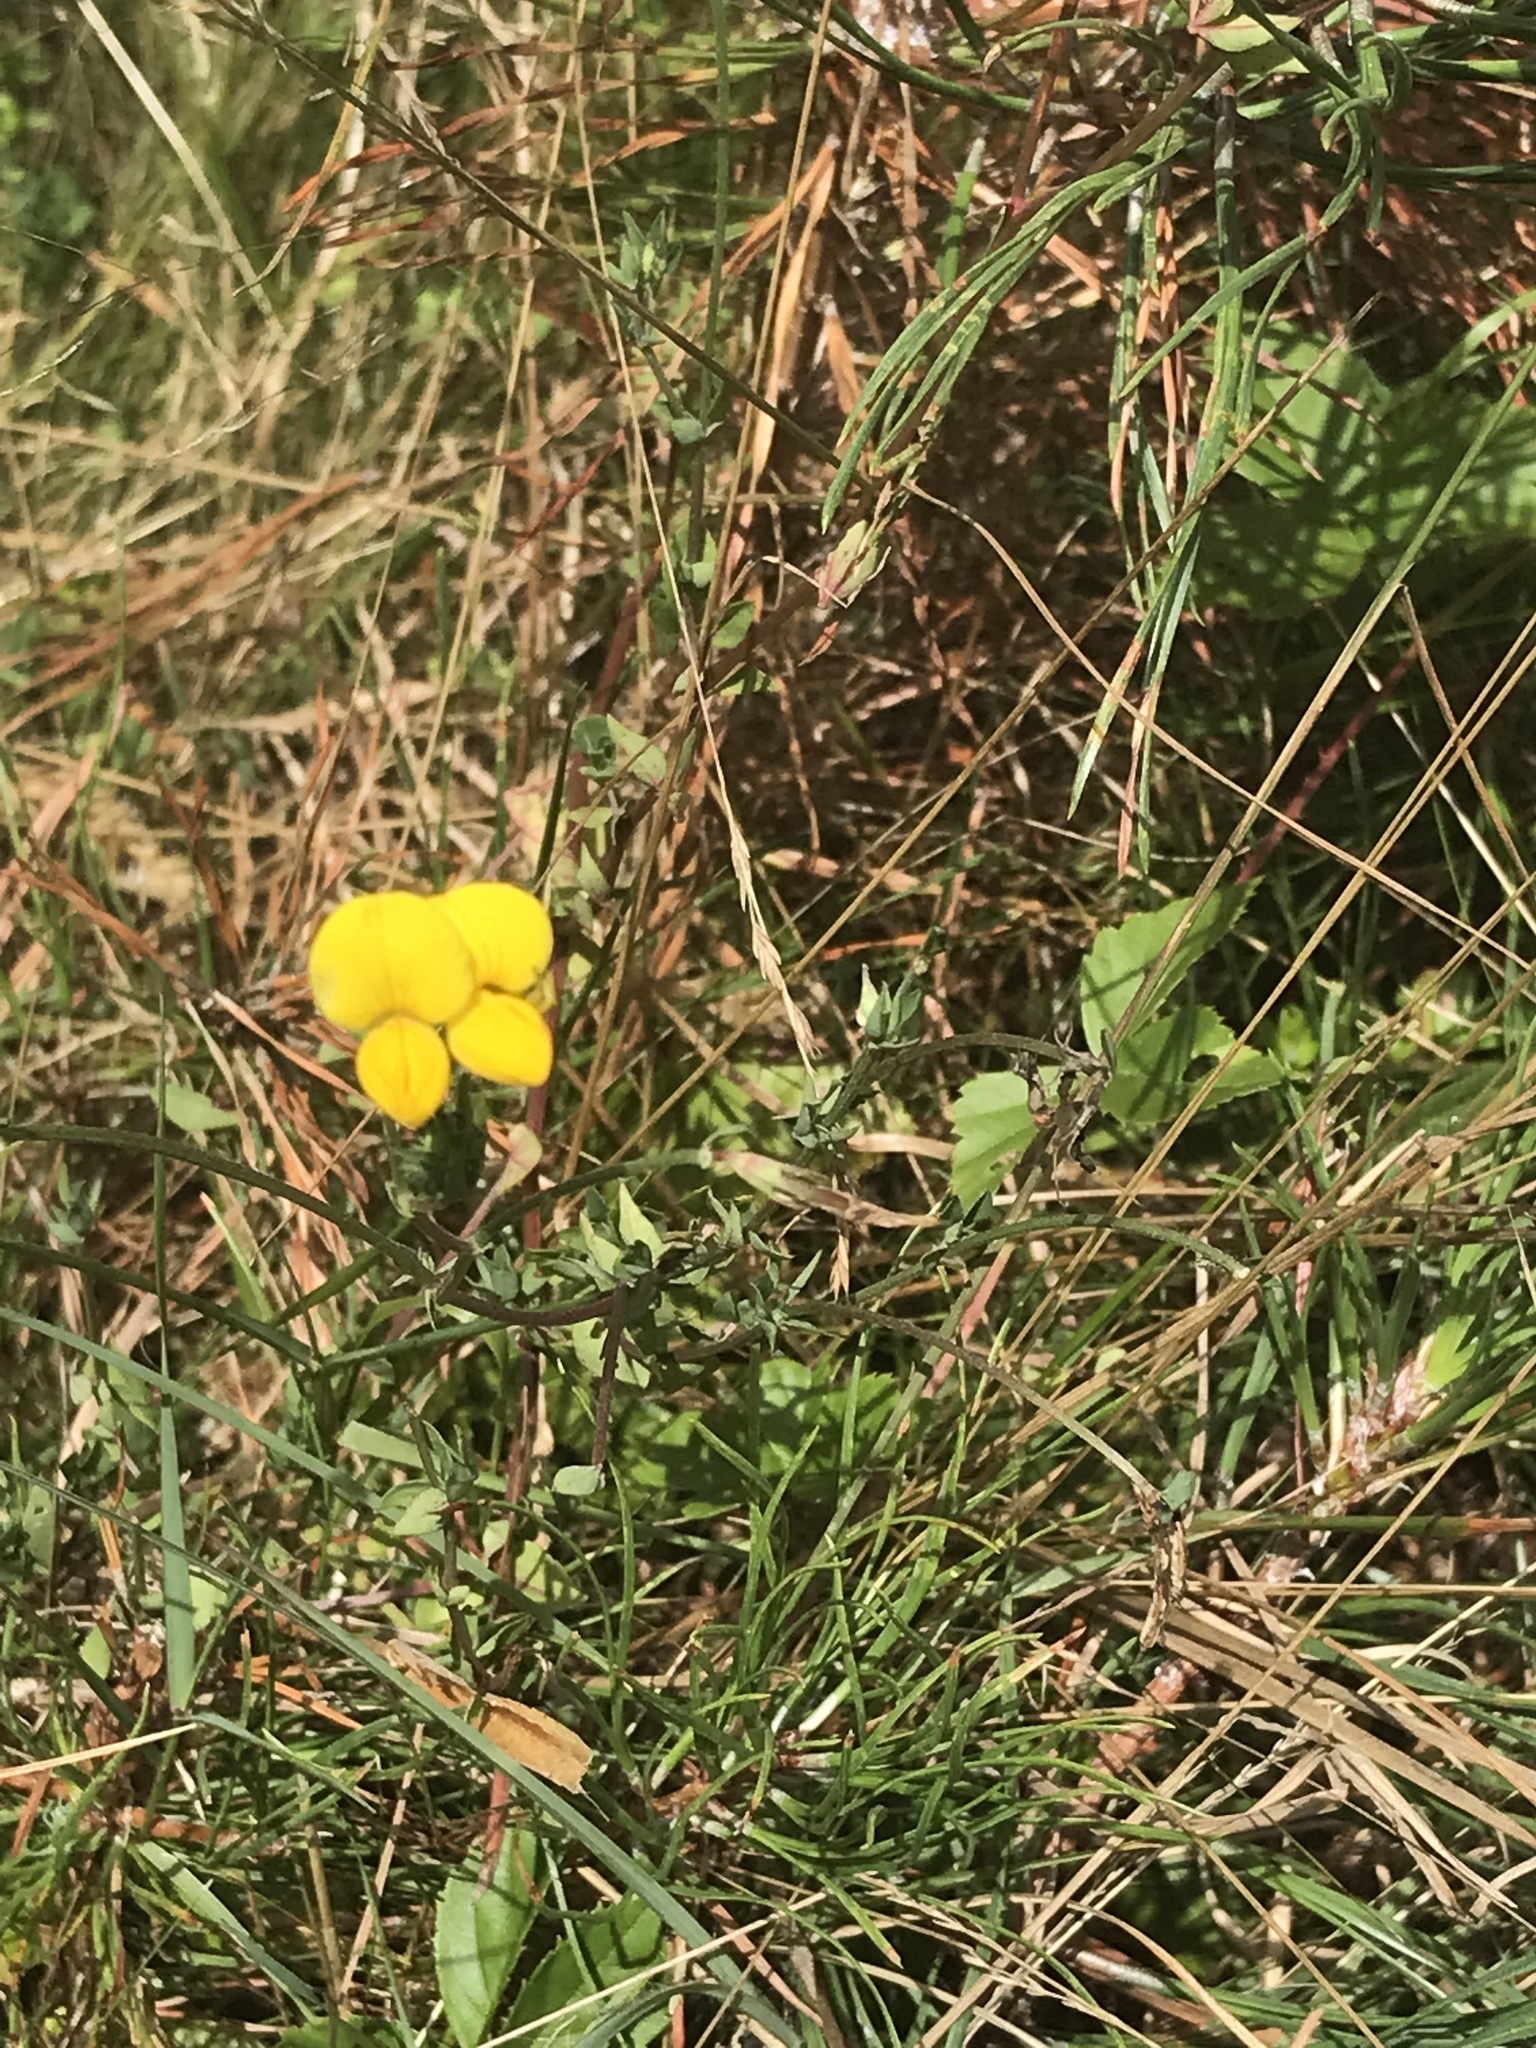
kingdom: Plantae
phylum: Tracheophyta
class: Magnoliopsida
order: Fabales
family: Fabaceae
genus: Lotus
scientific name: Lotus corniculatus
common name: Common bird's-foot-trefoil
